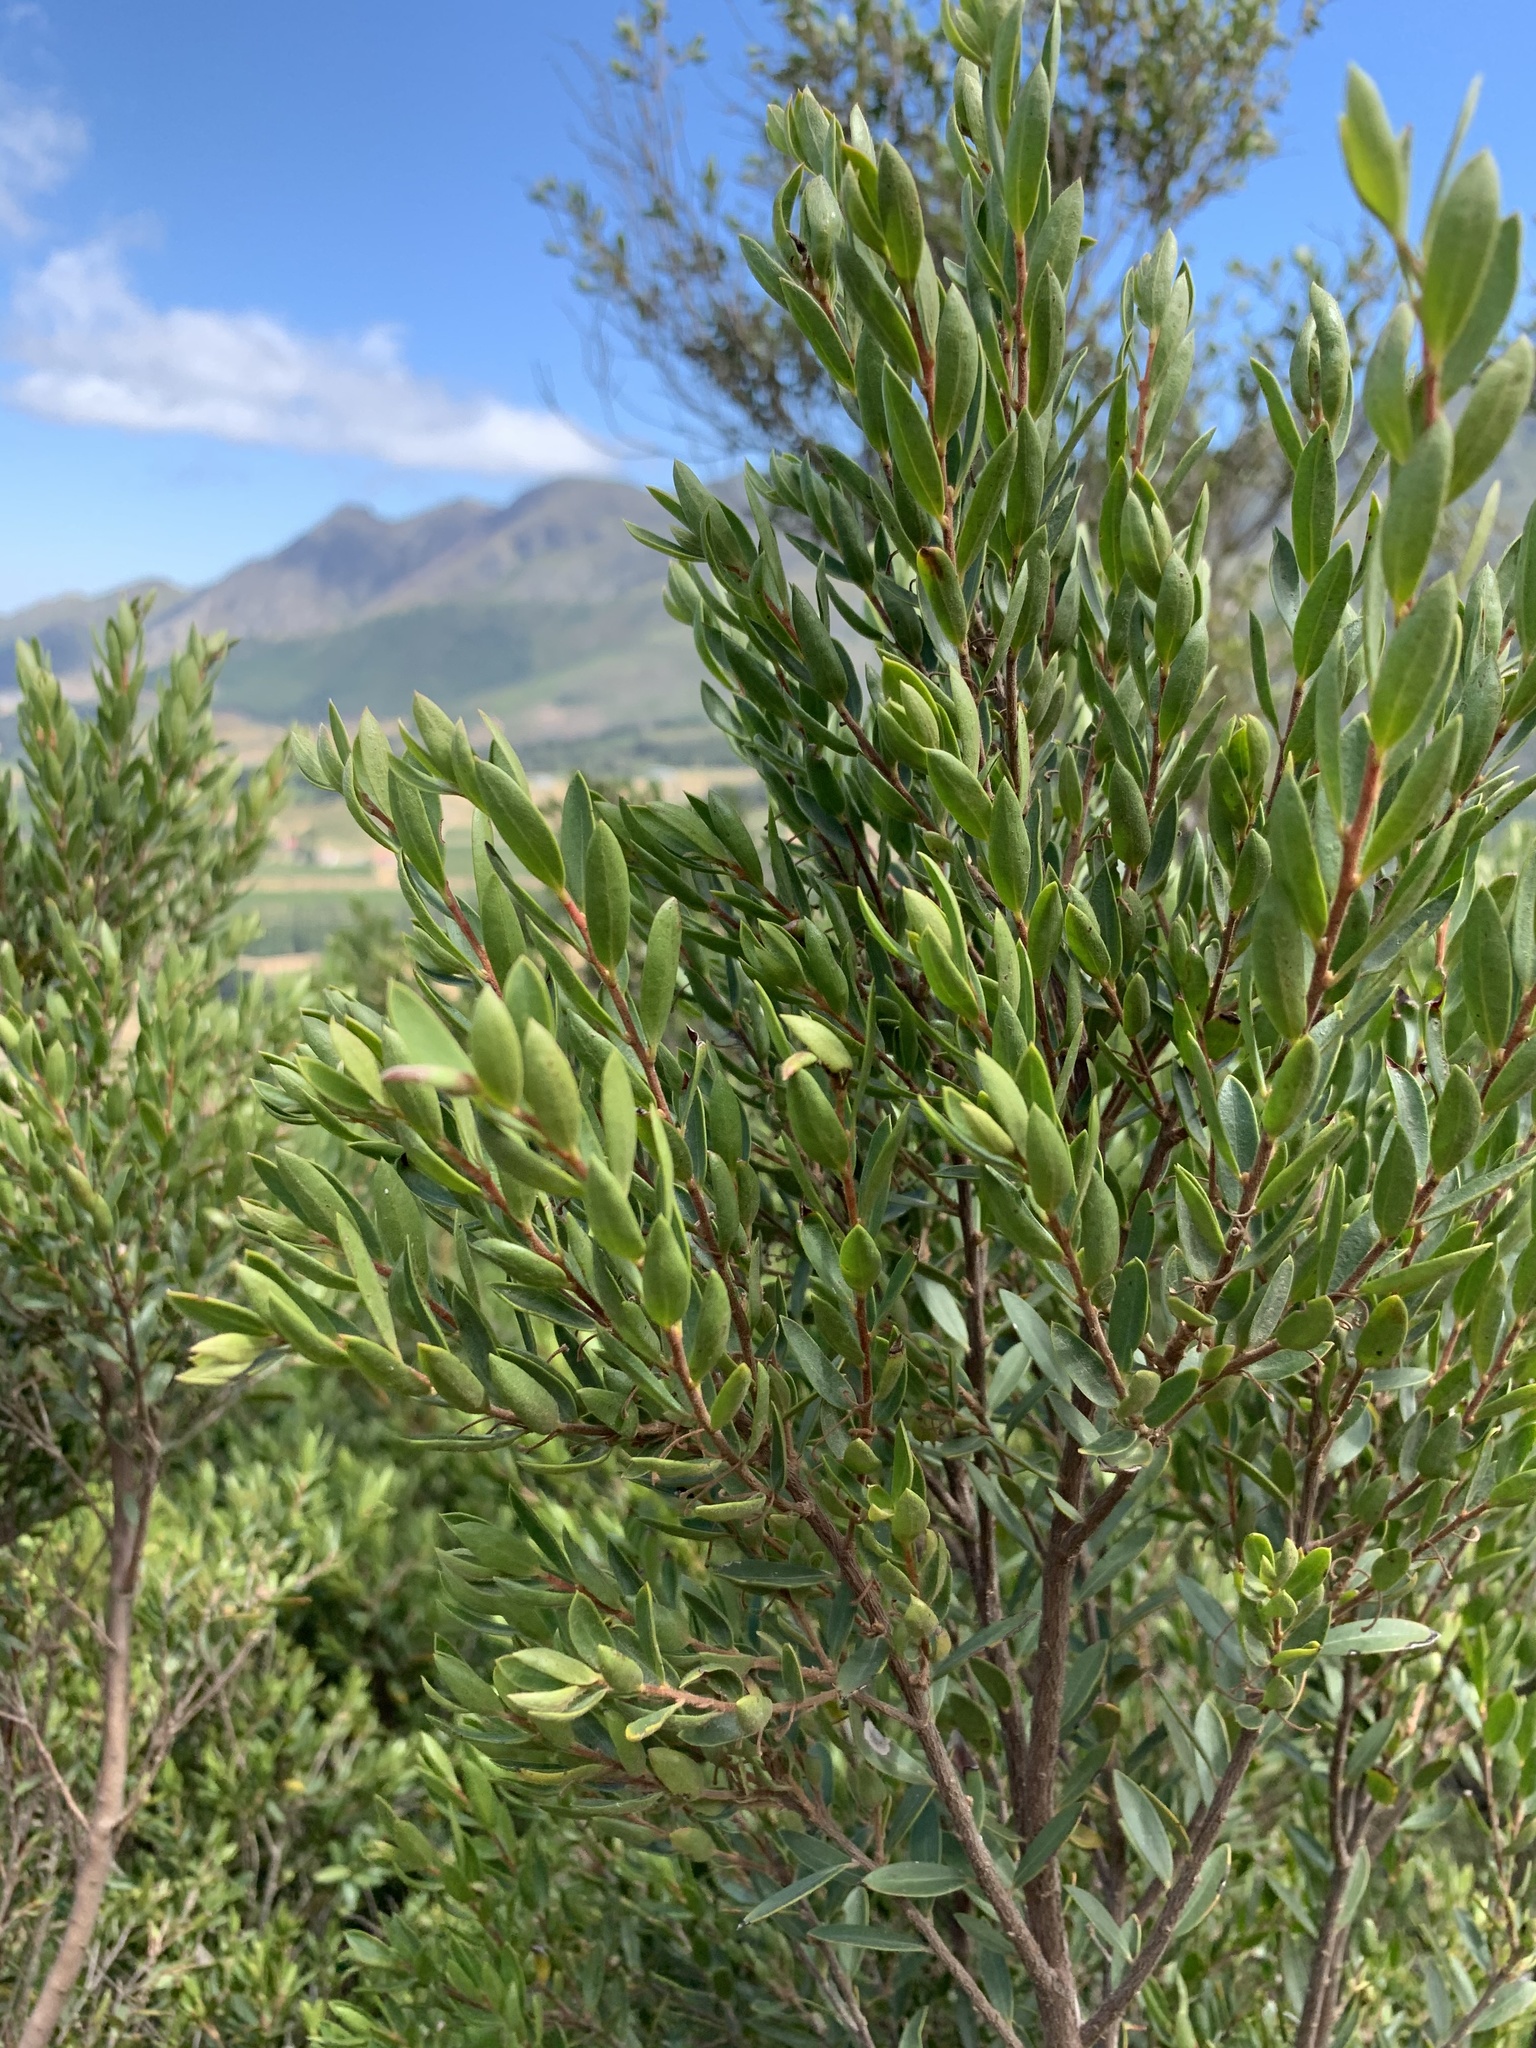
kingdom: Plantae
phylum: Tracheophyta
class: Magnoliopsida
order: Ericales
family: Ebenaceae
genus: Diospyros
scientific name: Diospyros glabra
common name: Fynbos star apple
